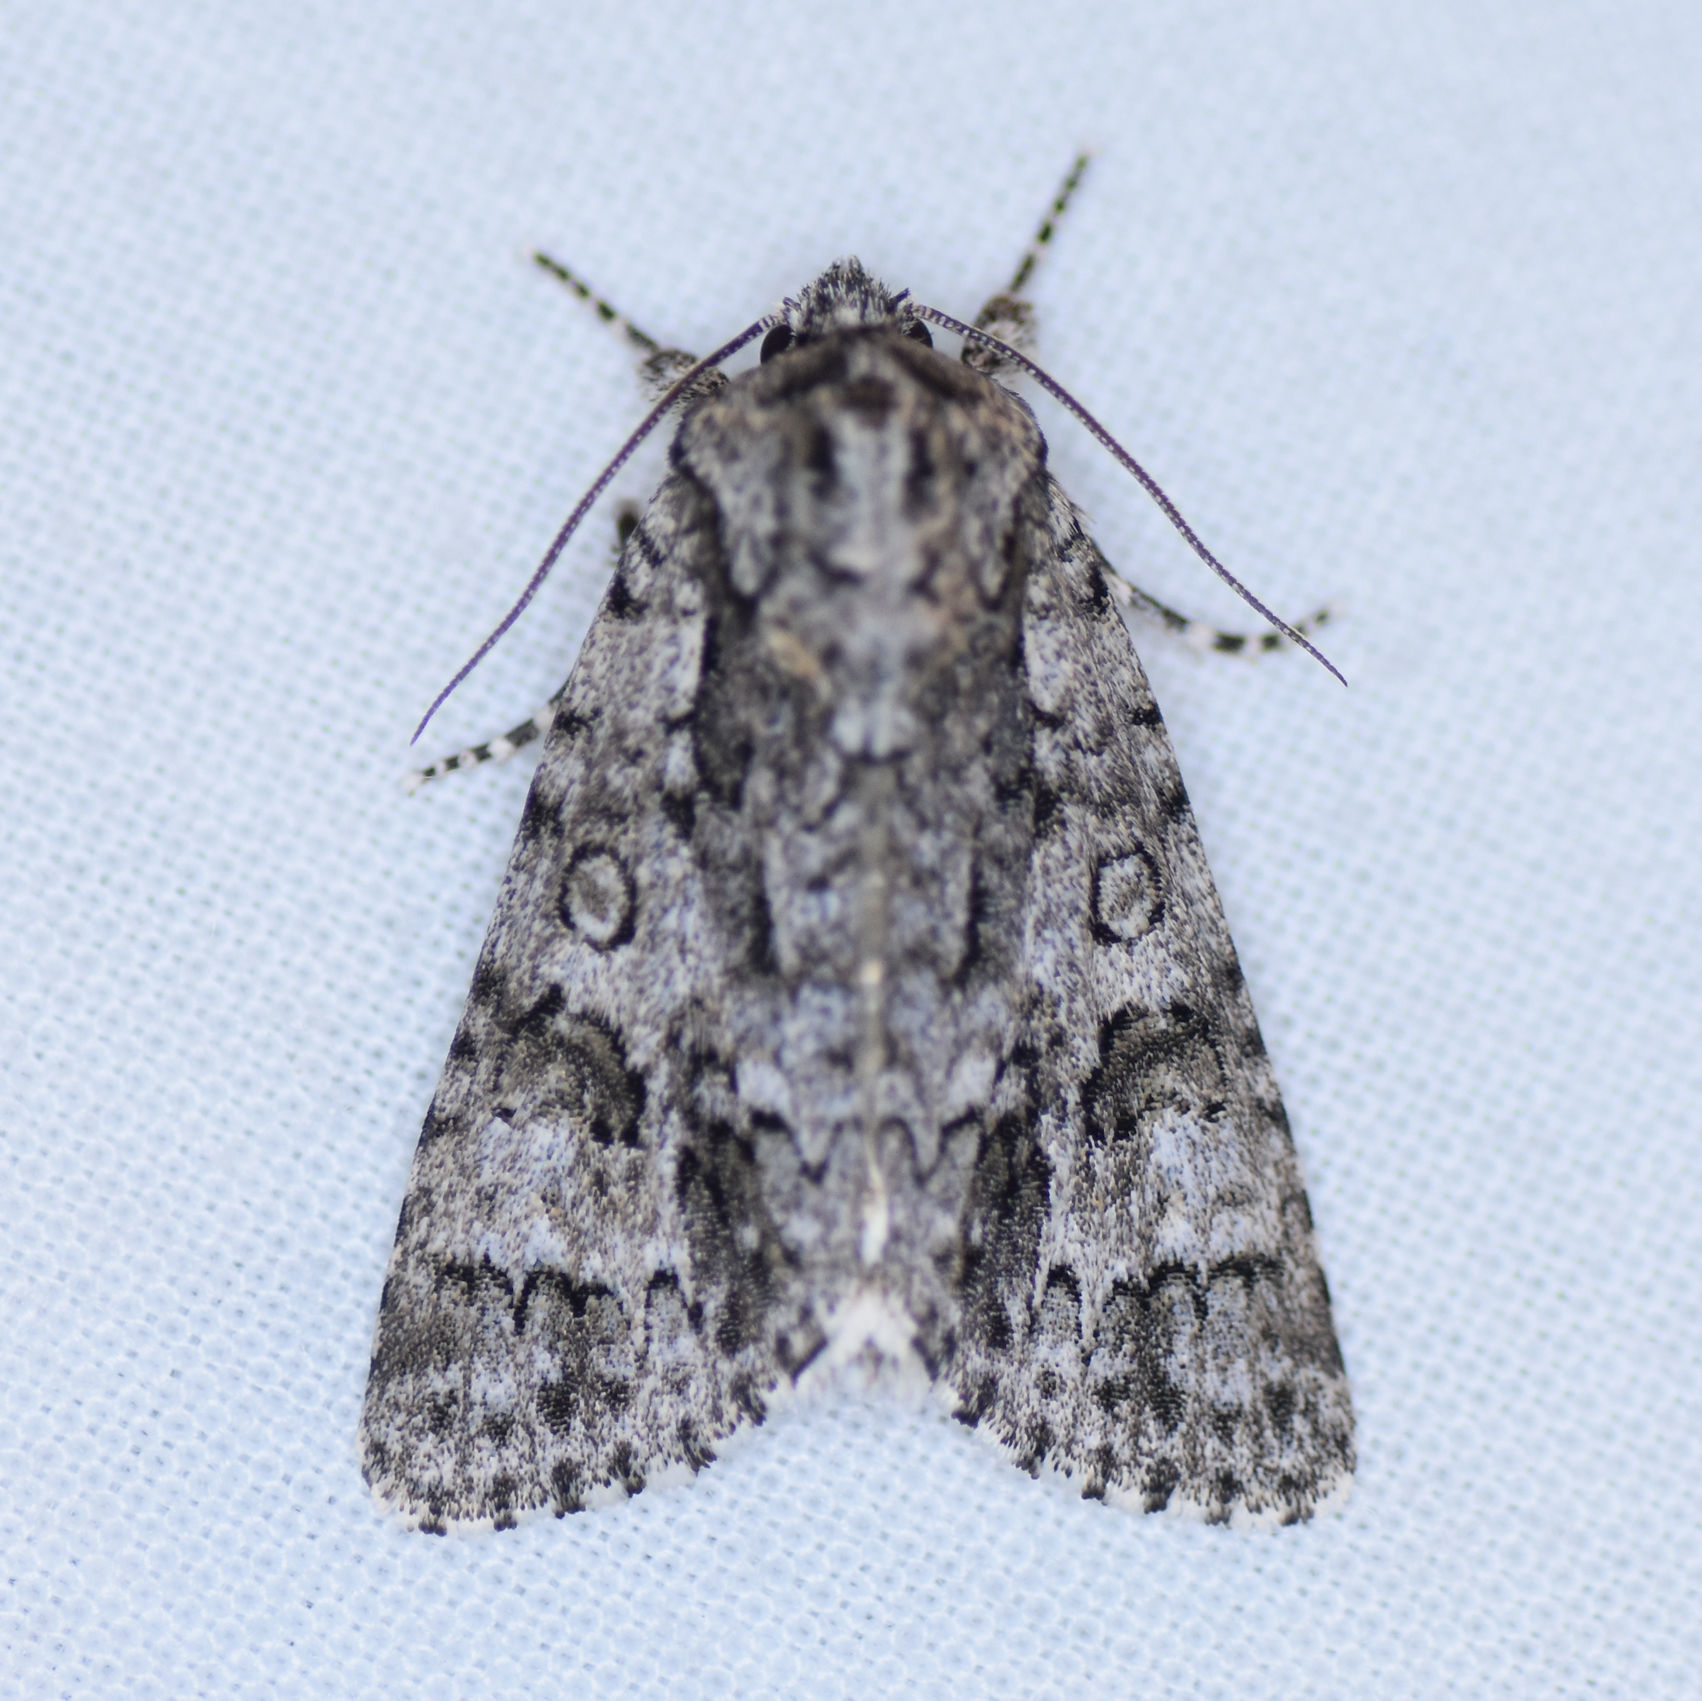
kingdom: Animalia
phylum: Arthropoda
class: Insecta
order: Lepidoptera
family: Noctuidae
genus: Acronicta
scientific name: Acronicta impressa
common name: Impressed dagger
